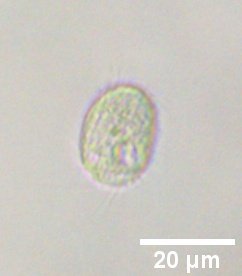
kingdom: Chromista
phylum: Ciliophora
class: Oligohymenophorea
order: Hymenostomatida
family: Cinetochilidae
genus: Cinetochilum
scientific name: Cinetochilum margaritaceum
